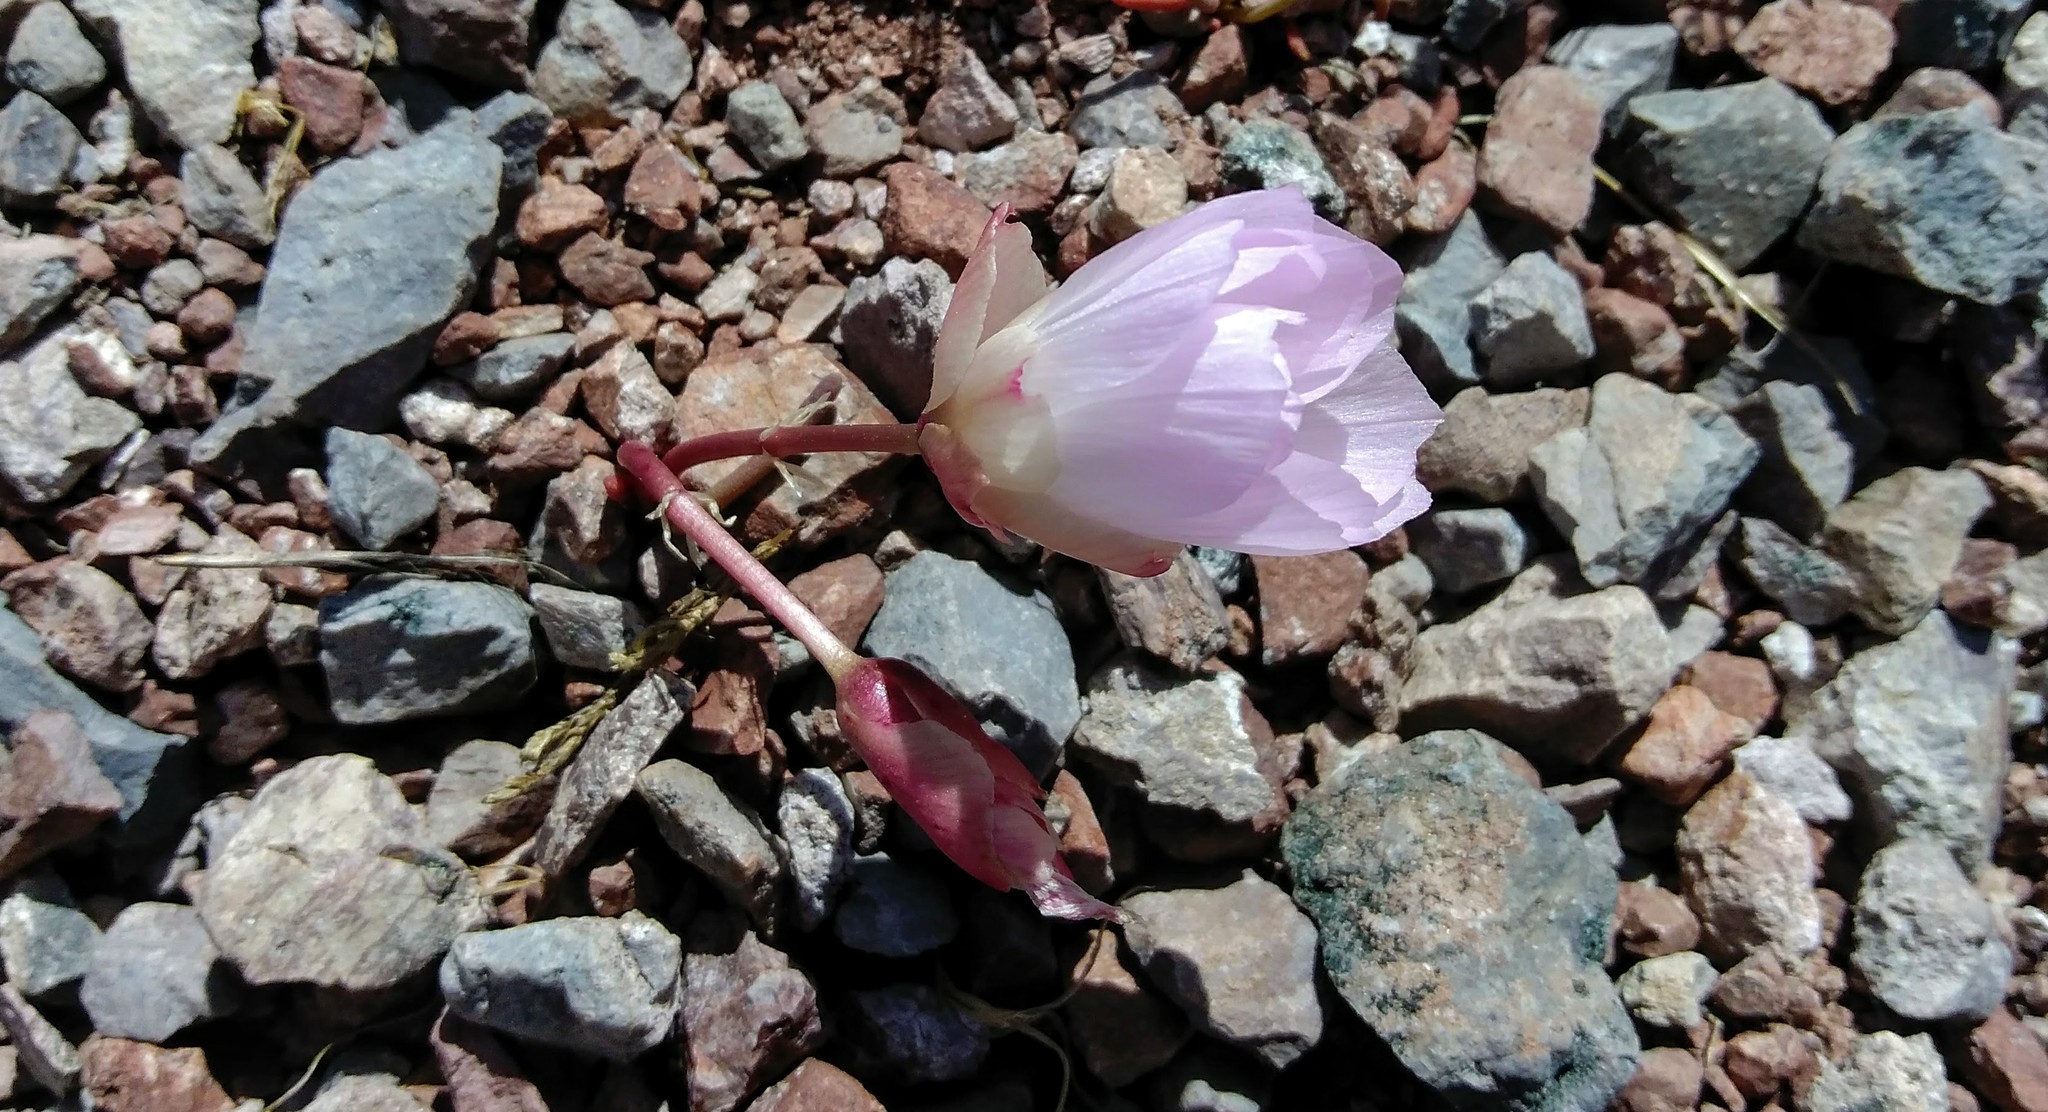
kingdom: Plantae
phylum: Tracheophyta
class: Magnoliopsida
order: Caryophyllales
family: Montiaceae
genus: Lewisia
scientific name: Lewisia rediviva
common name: Bitter-root
